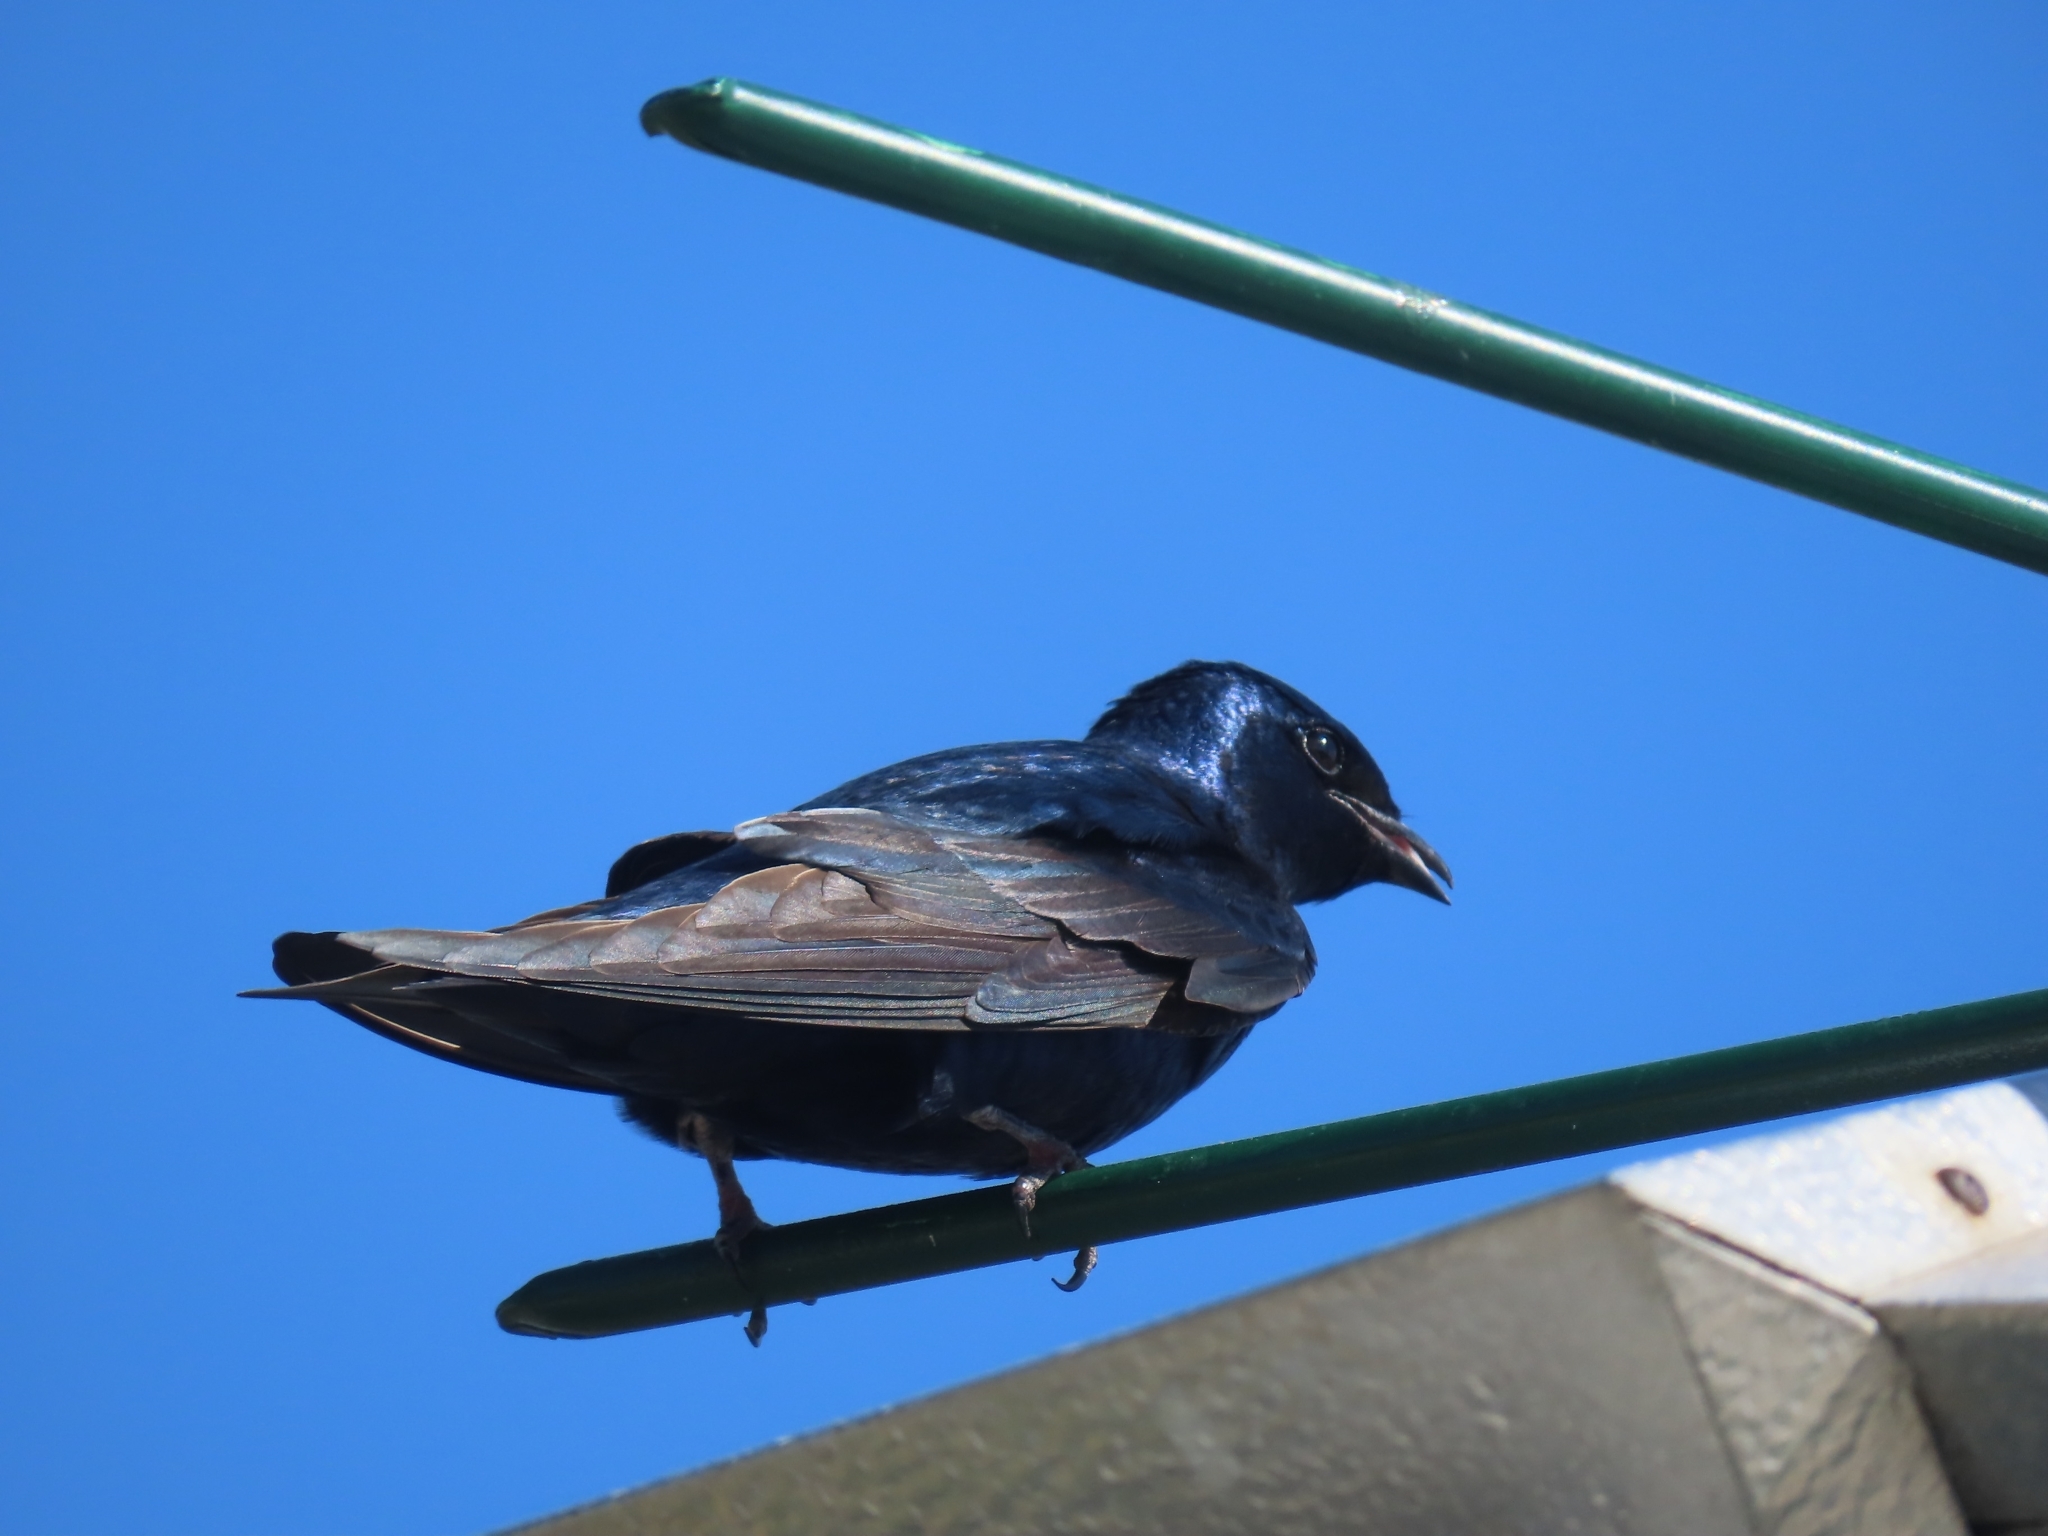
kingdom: Animalia
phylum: Chordata
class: Aves
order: Passeriformes
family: Hirundinidae
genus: Progne
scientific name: Progne subis
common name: Purple martin
